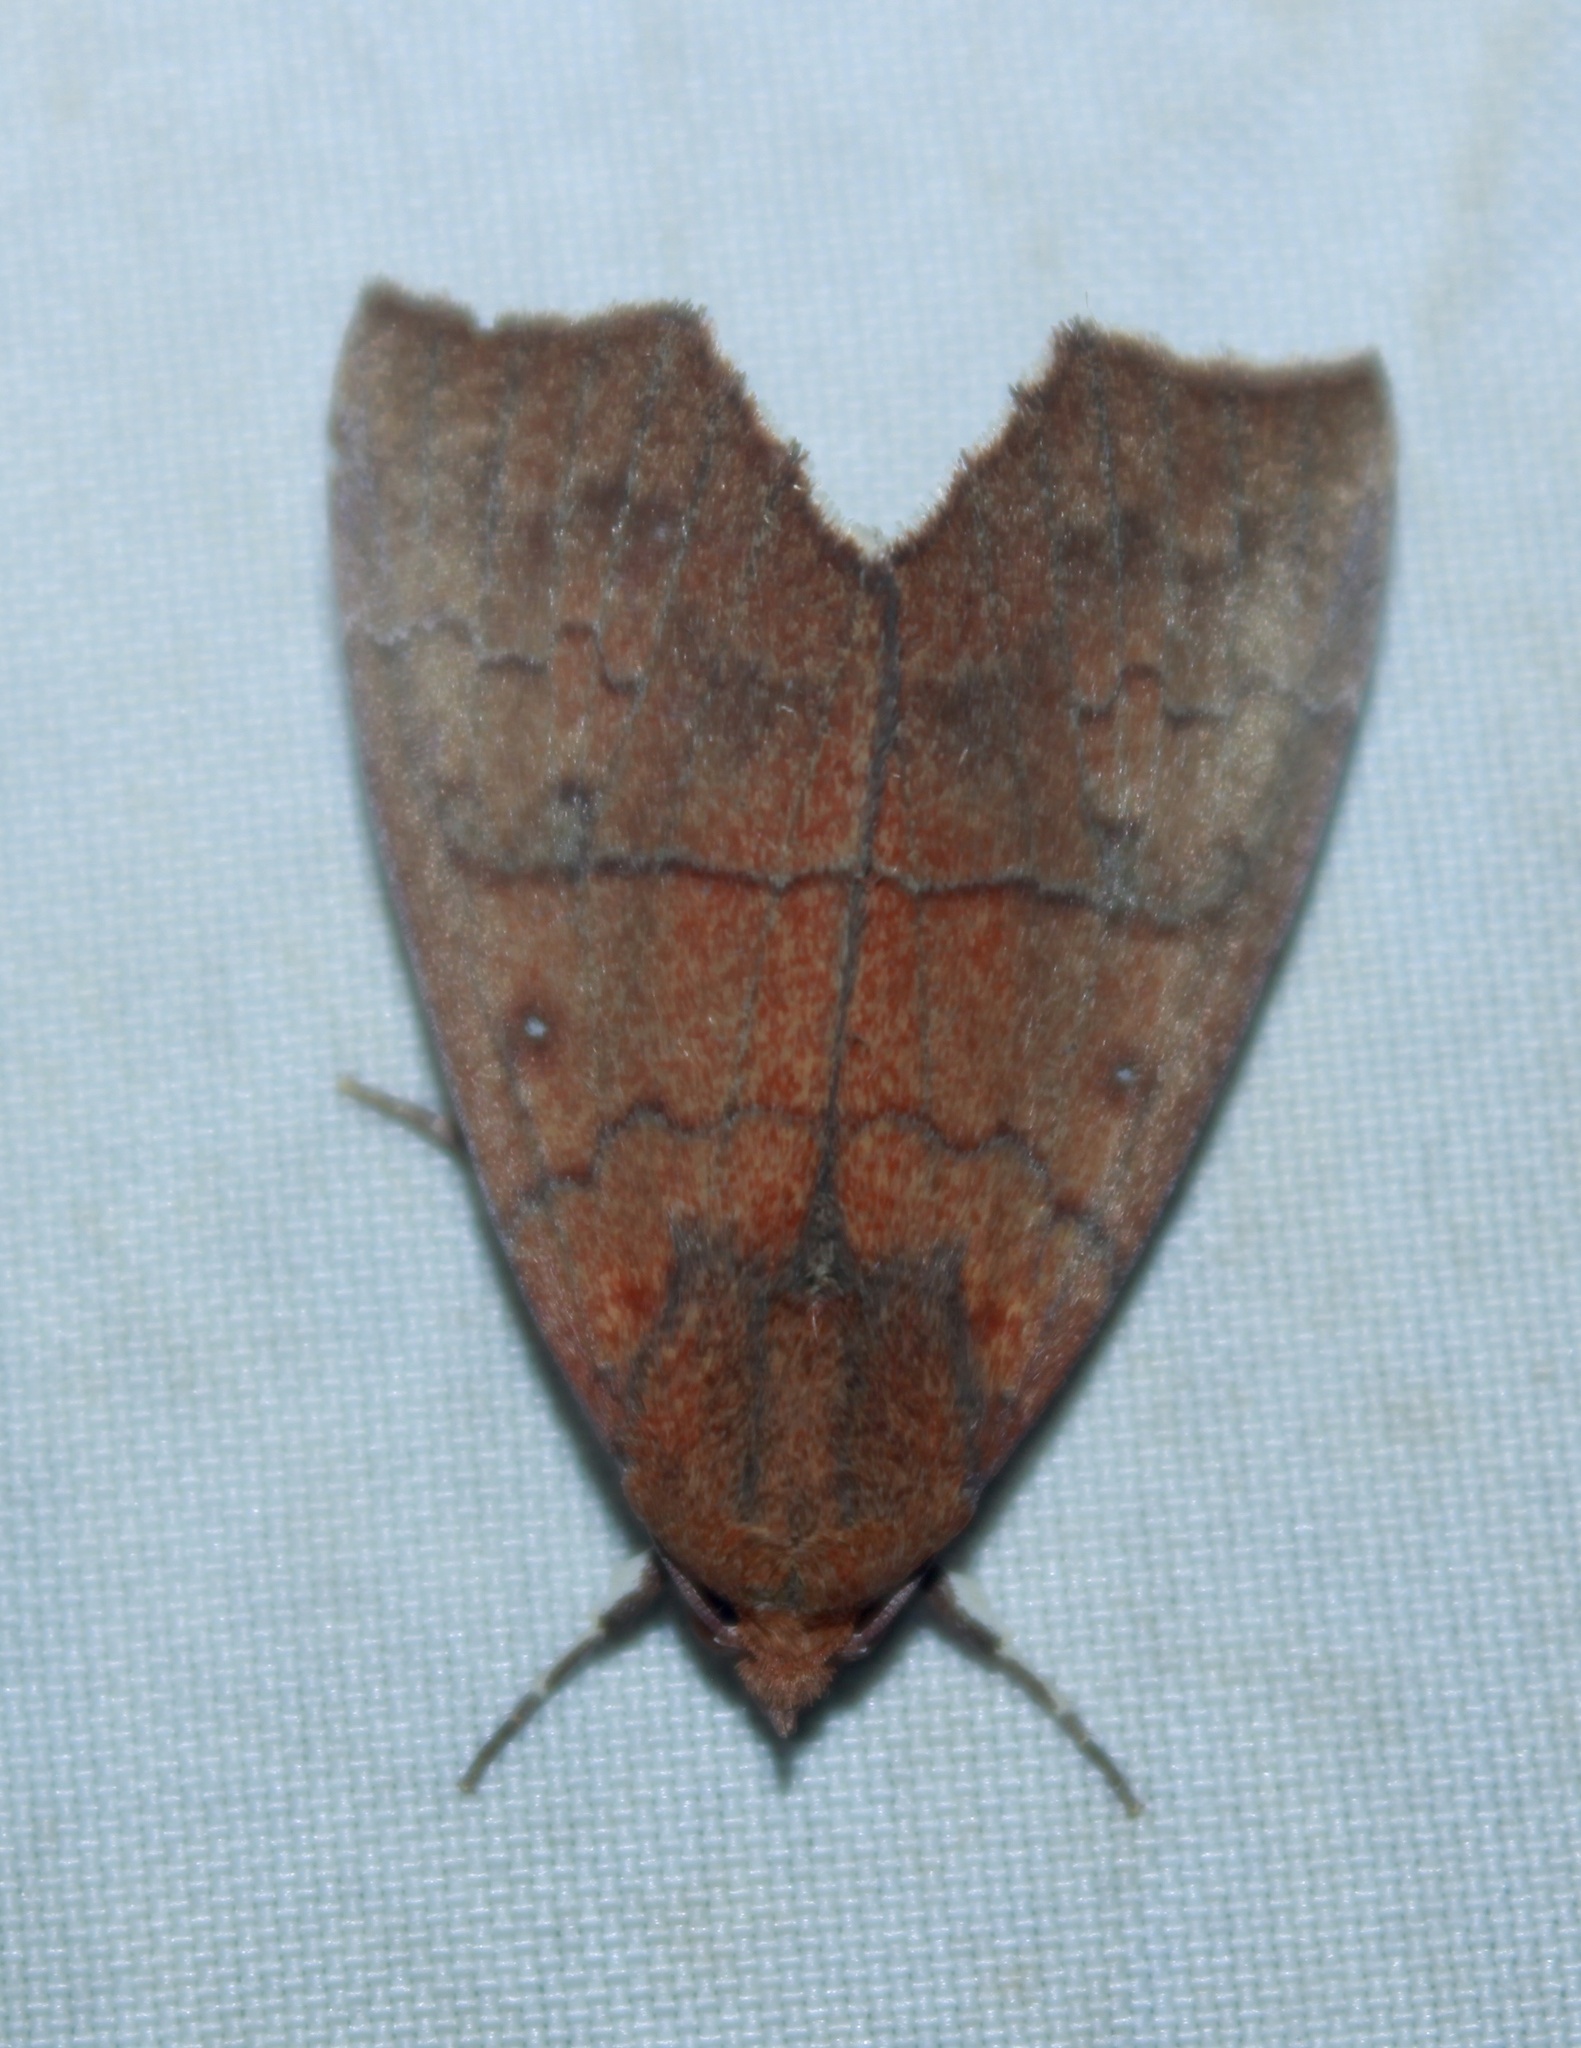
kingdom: Animalia
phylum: Arthropoda
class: Insecta
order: Lepidoptera
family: Erebidae
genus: Rusicada
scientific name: Rusicada privata
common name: Hibiscus leaf caterpillar moth
